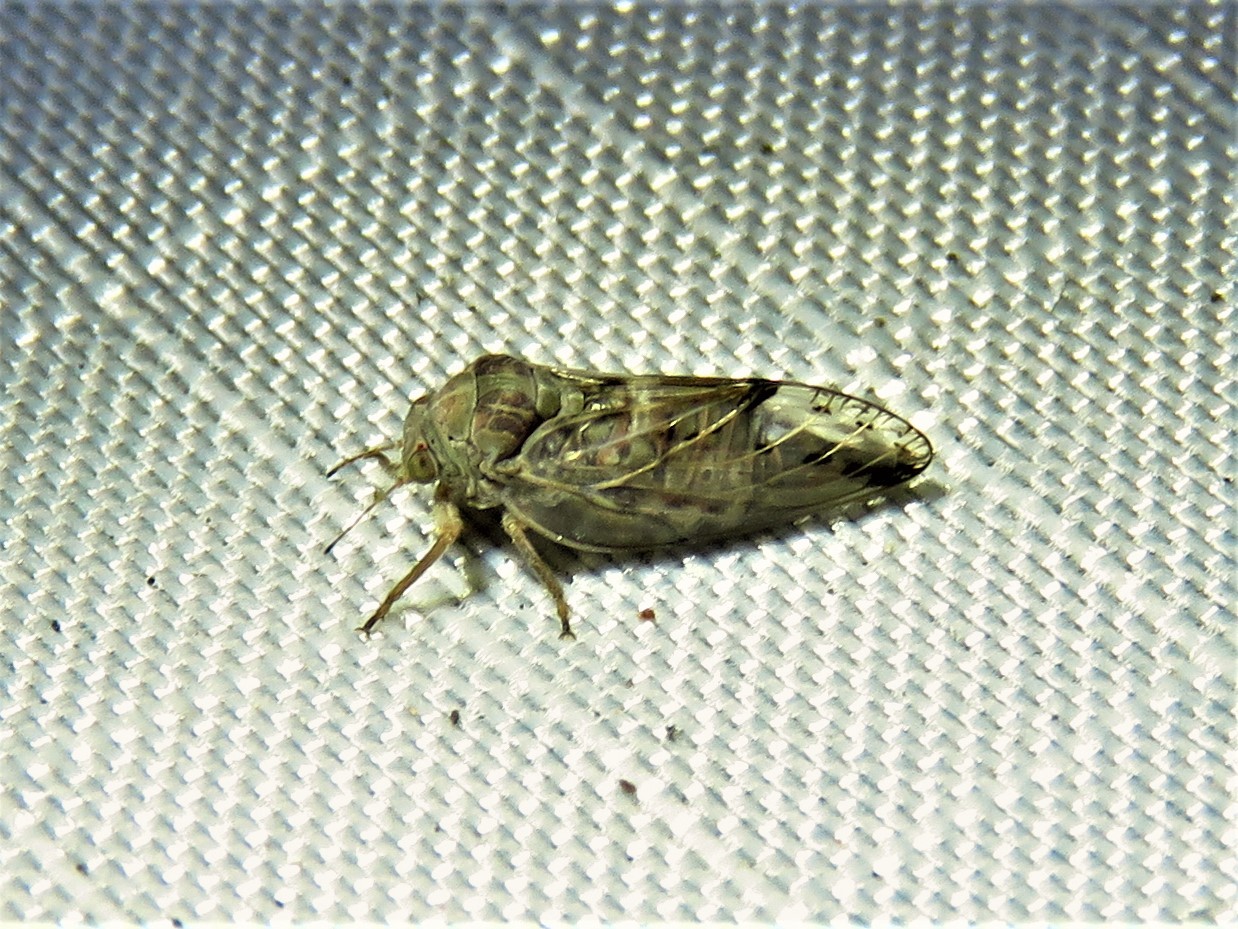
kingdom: Animalia
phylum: Arthropoda
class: Insecta
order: Hemiptera
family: Aphalaridae
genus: Pachypsylla
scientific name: Pachypsylla venusta
